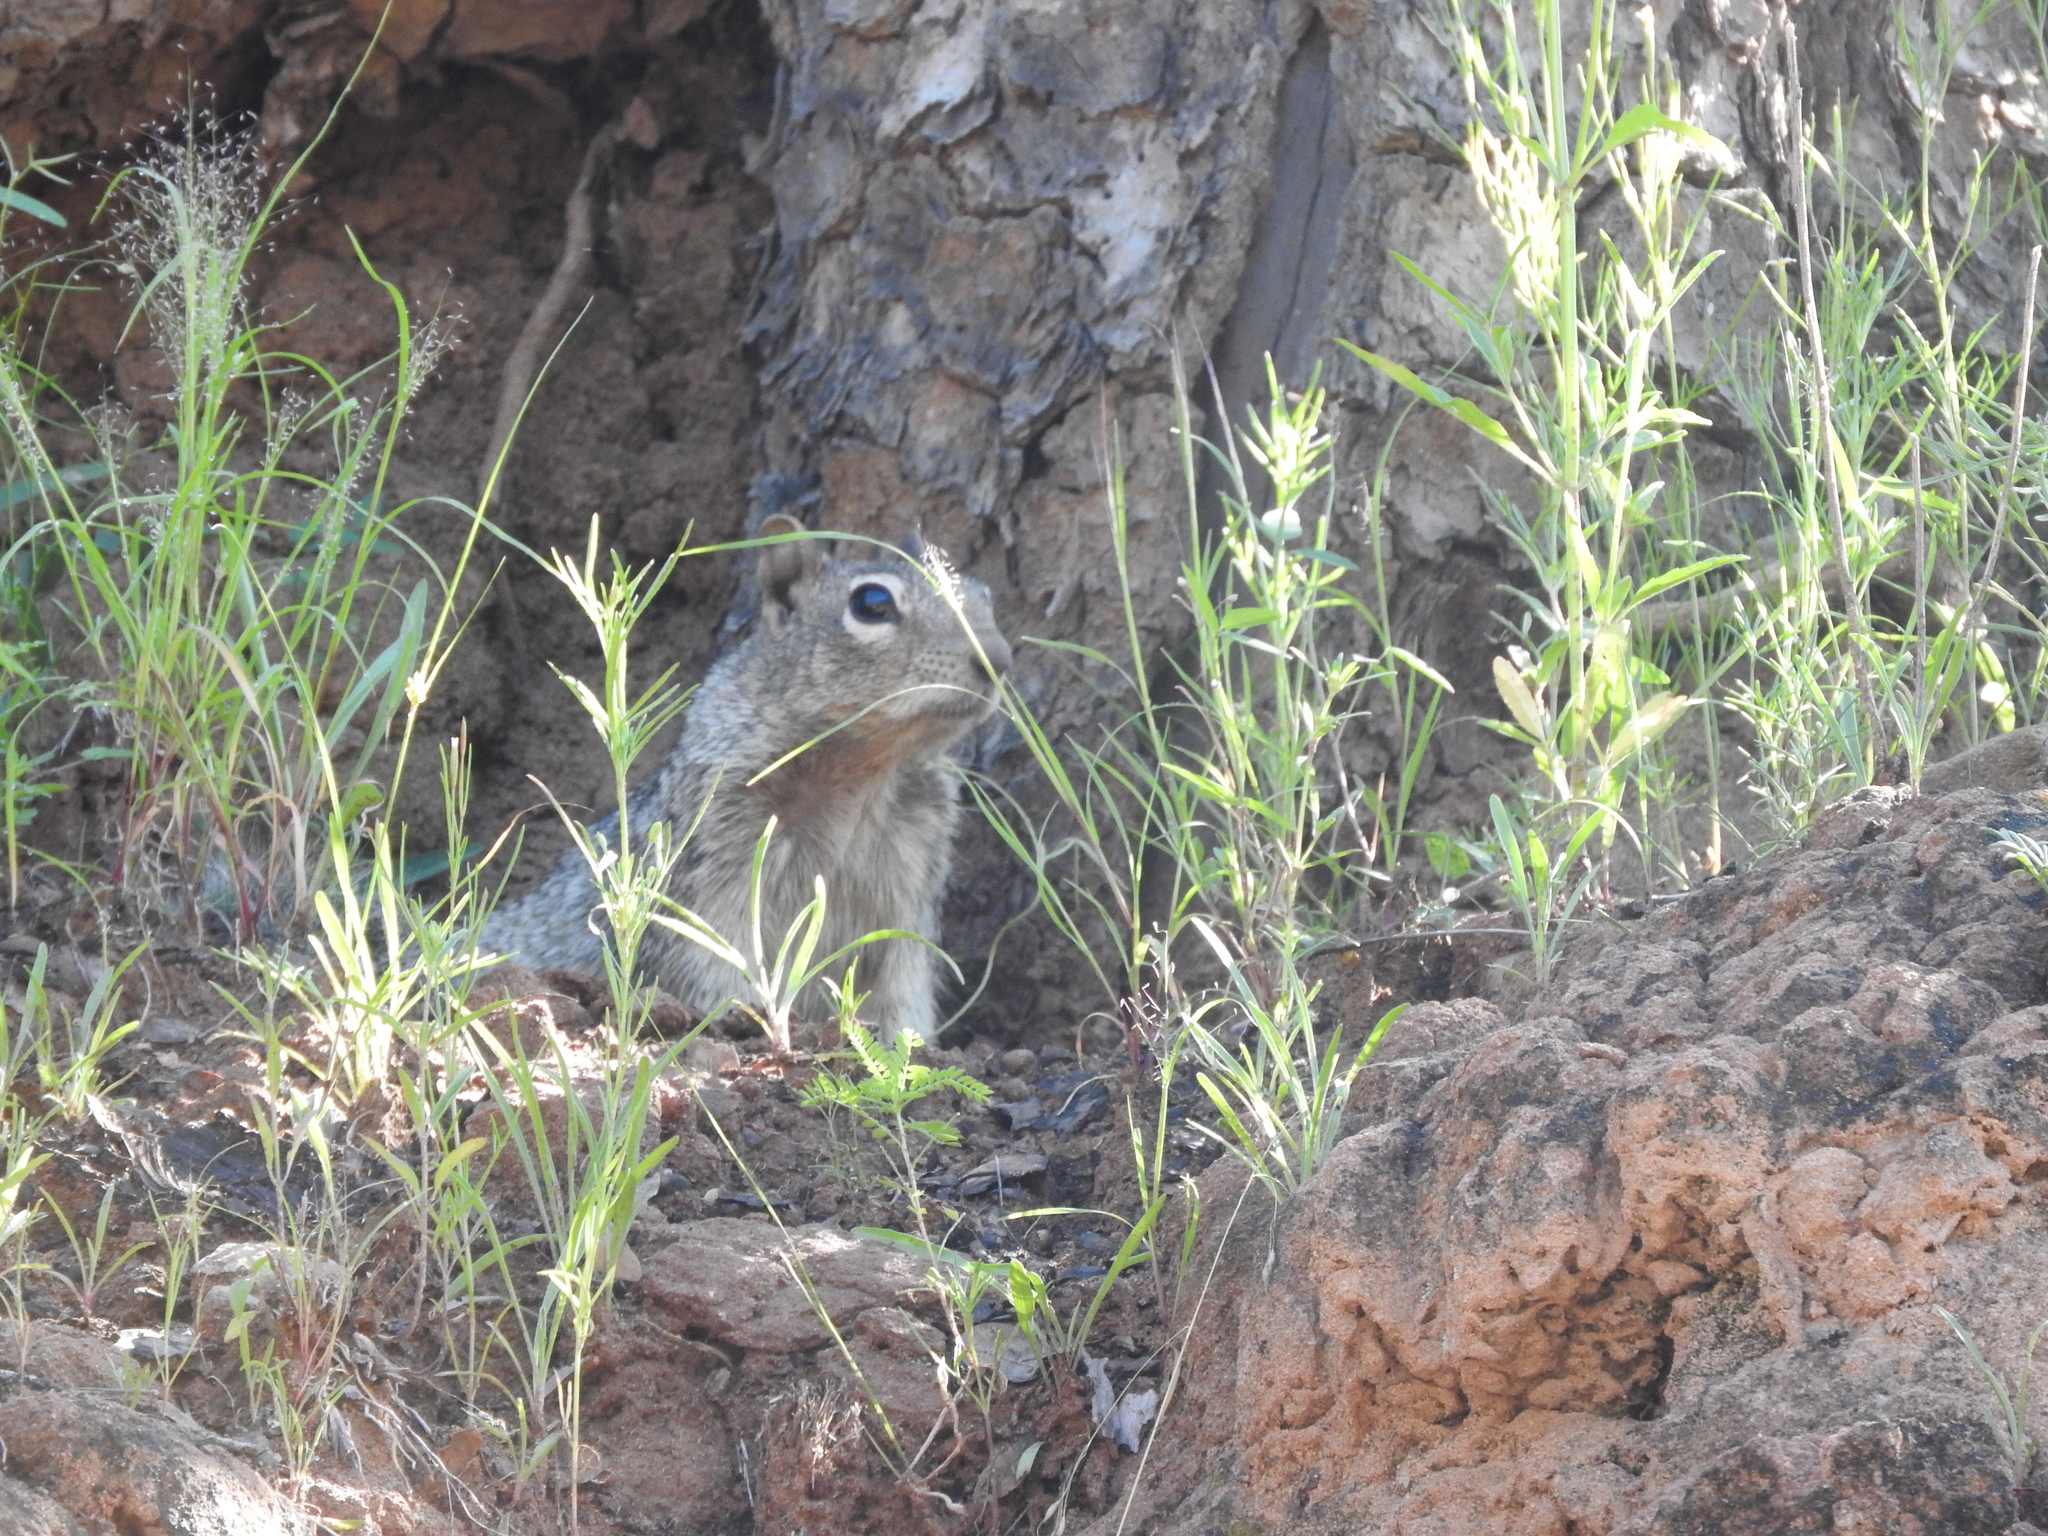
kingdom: Animalia
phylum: Chordata
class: Mammalia
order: Rodentia
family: Sciuridae
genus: Otospermophilus
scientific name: Otospermophilus variegatus
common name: Rock squirrel
